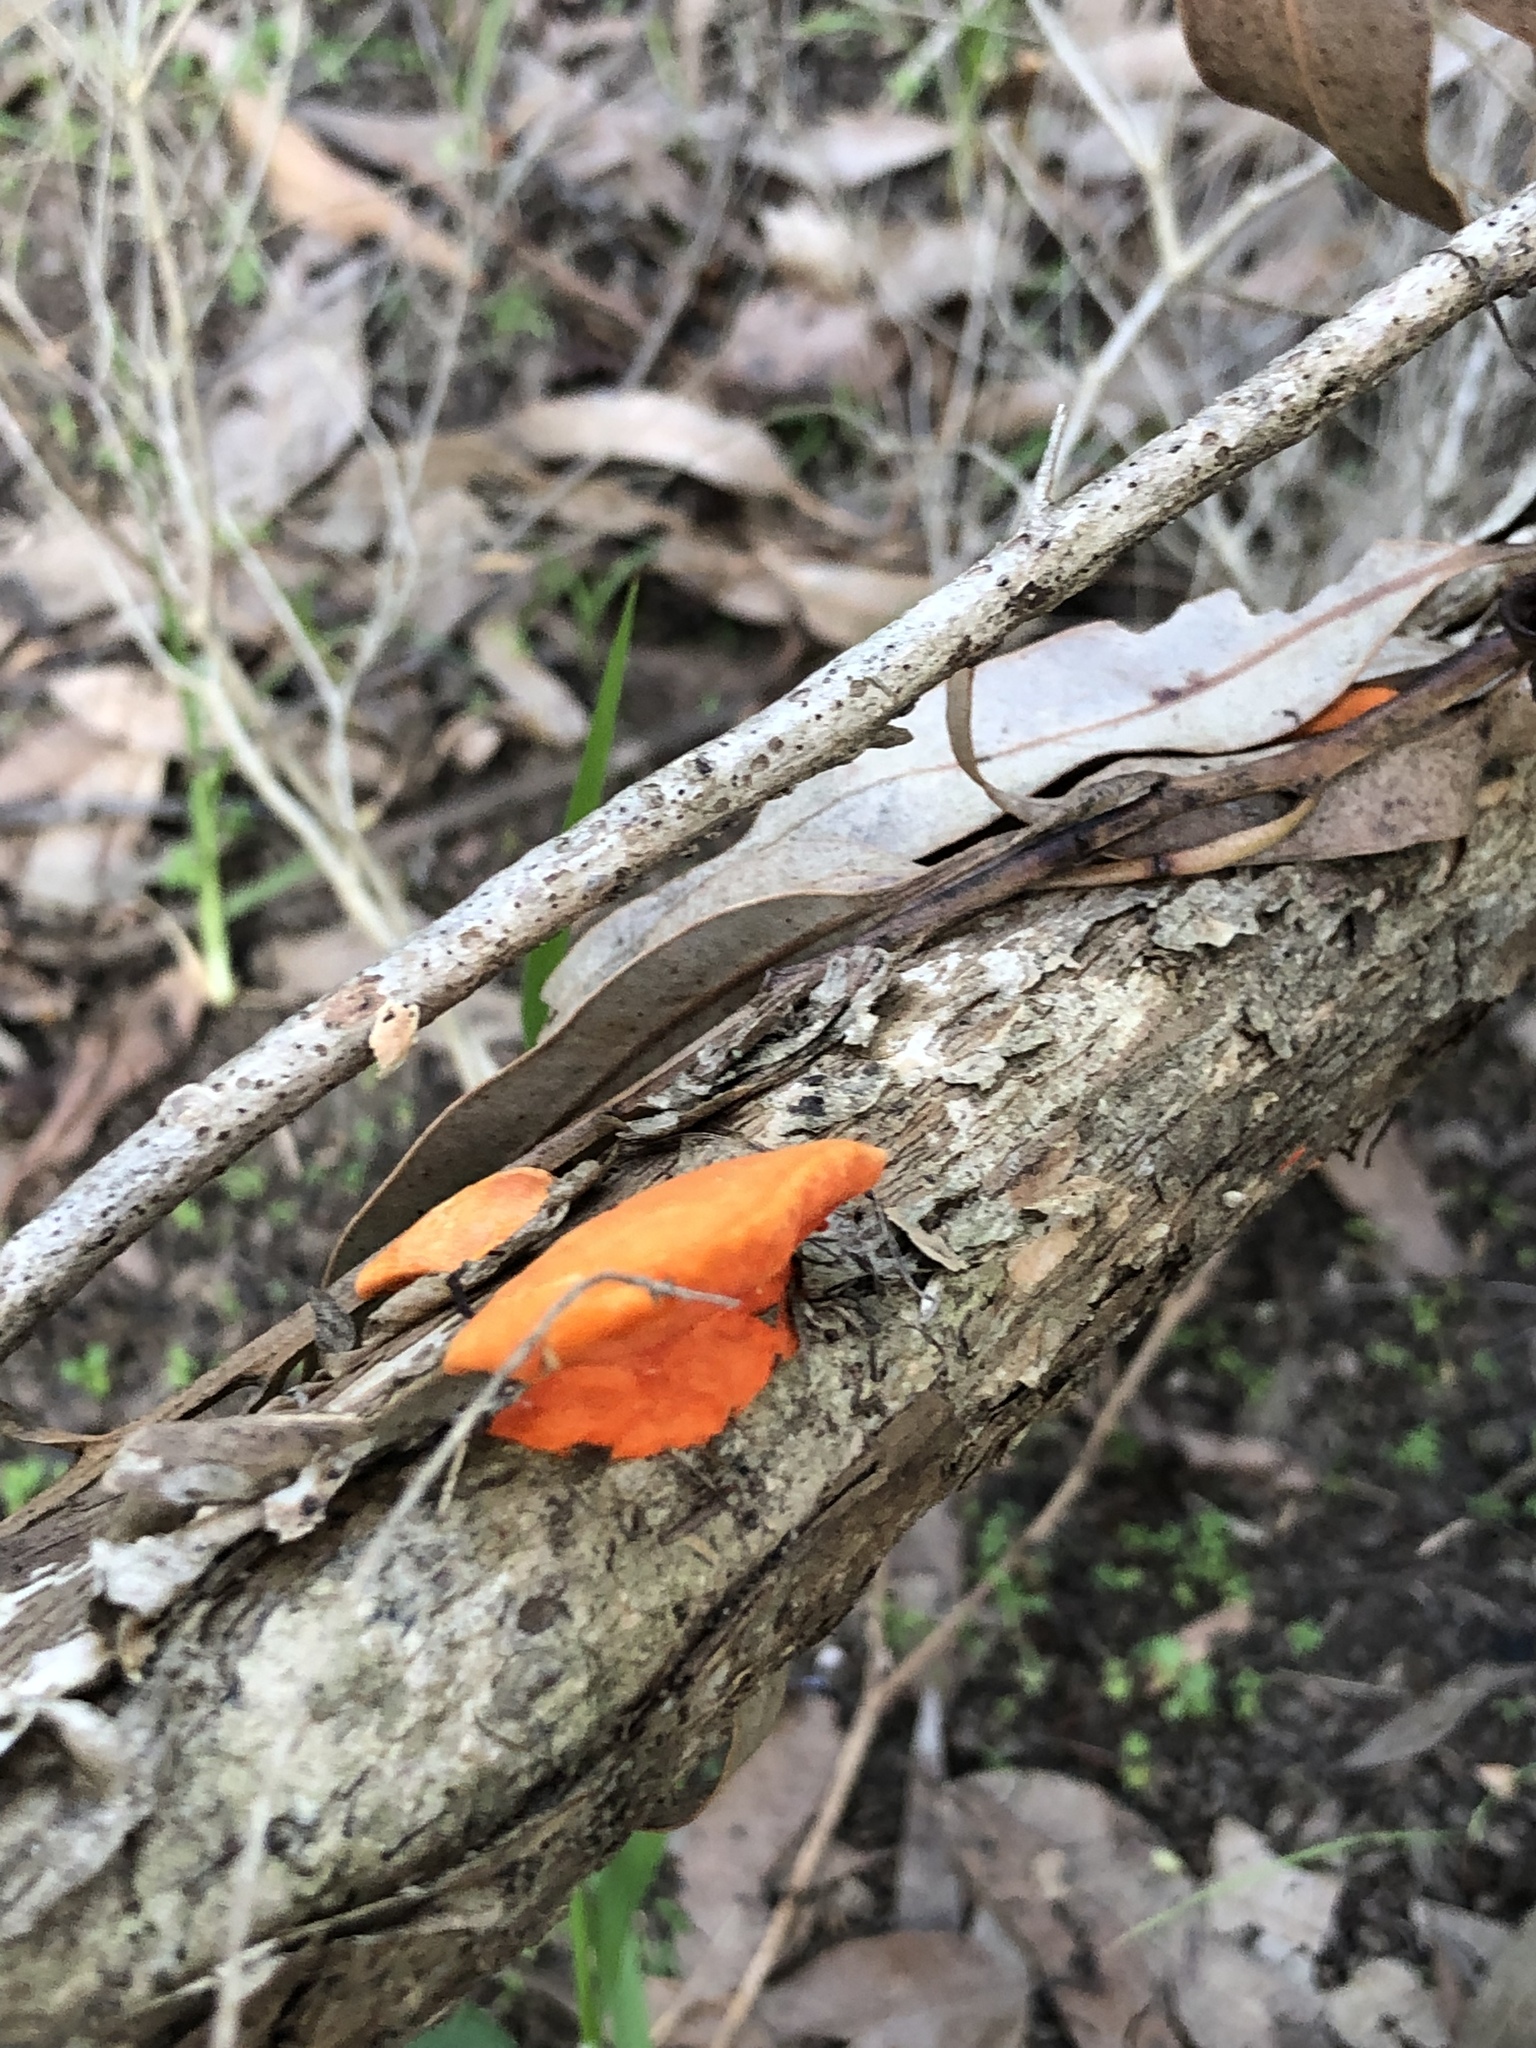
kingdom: Fungi
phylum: Basidiomycota
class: Agaricomycetes
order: Polyporales
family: Polyporaceae
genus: Trametes
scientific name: Trametes coccinea
